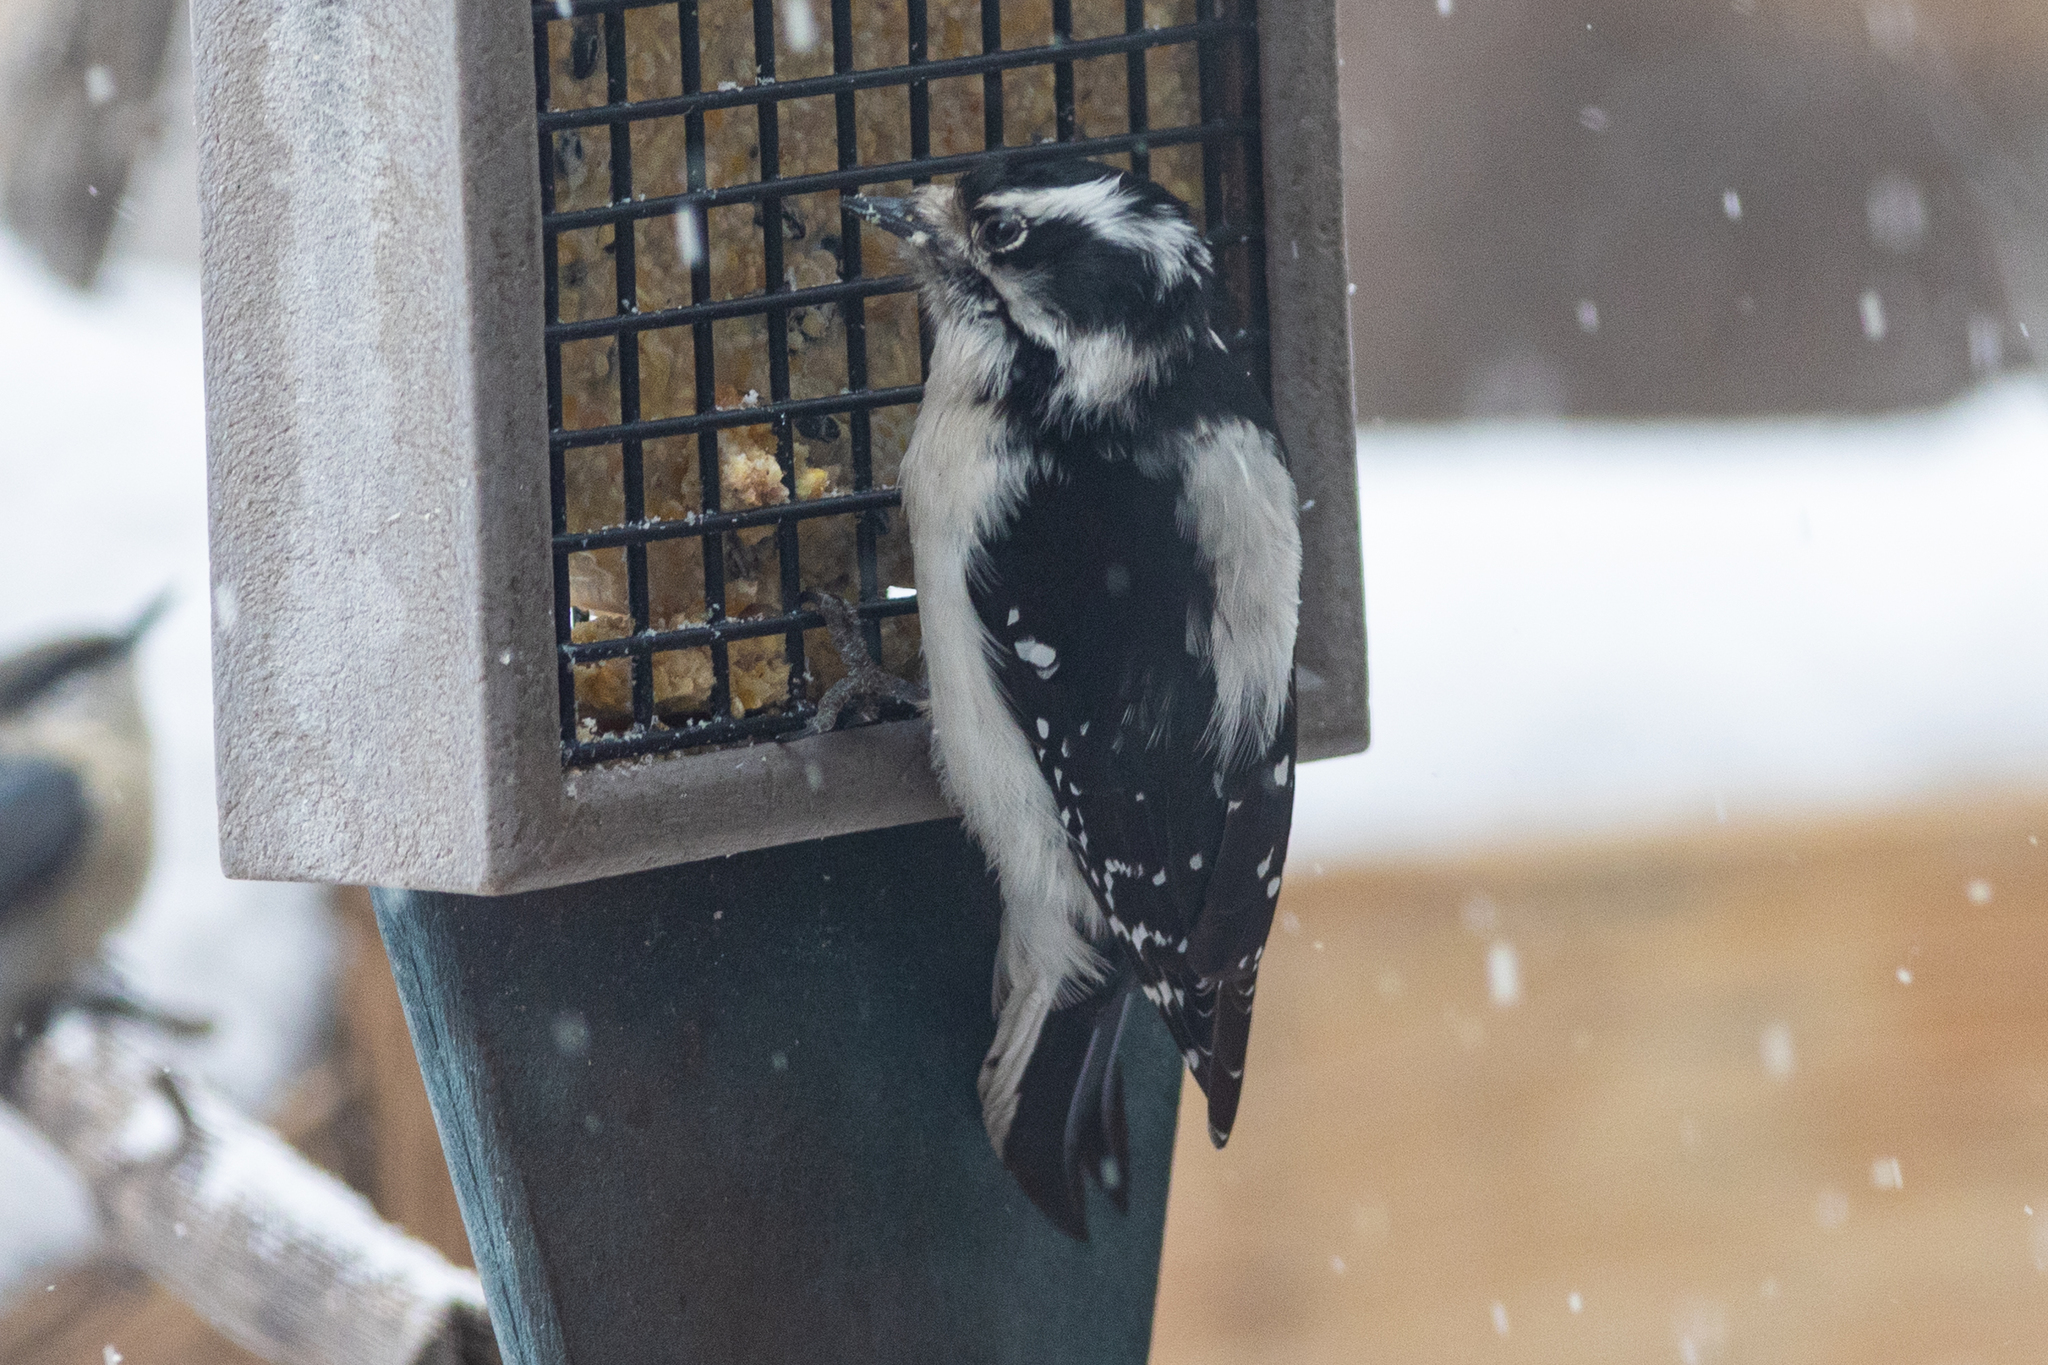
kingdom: Animalia
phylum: Chordata
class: Aves
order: Piciformes
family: Picidae
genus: Dryobates
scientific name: Dryobates pubescens
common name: Downy woodpecker
